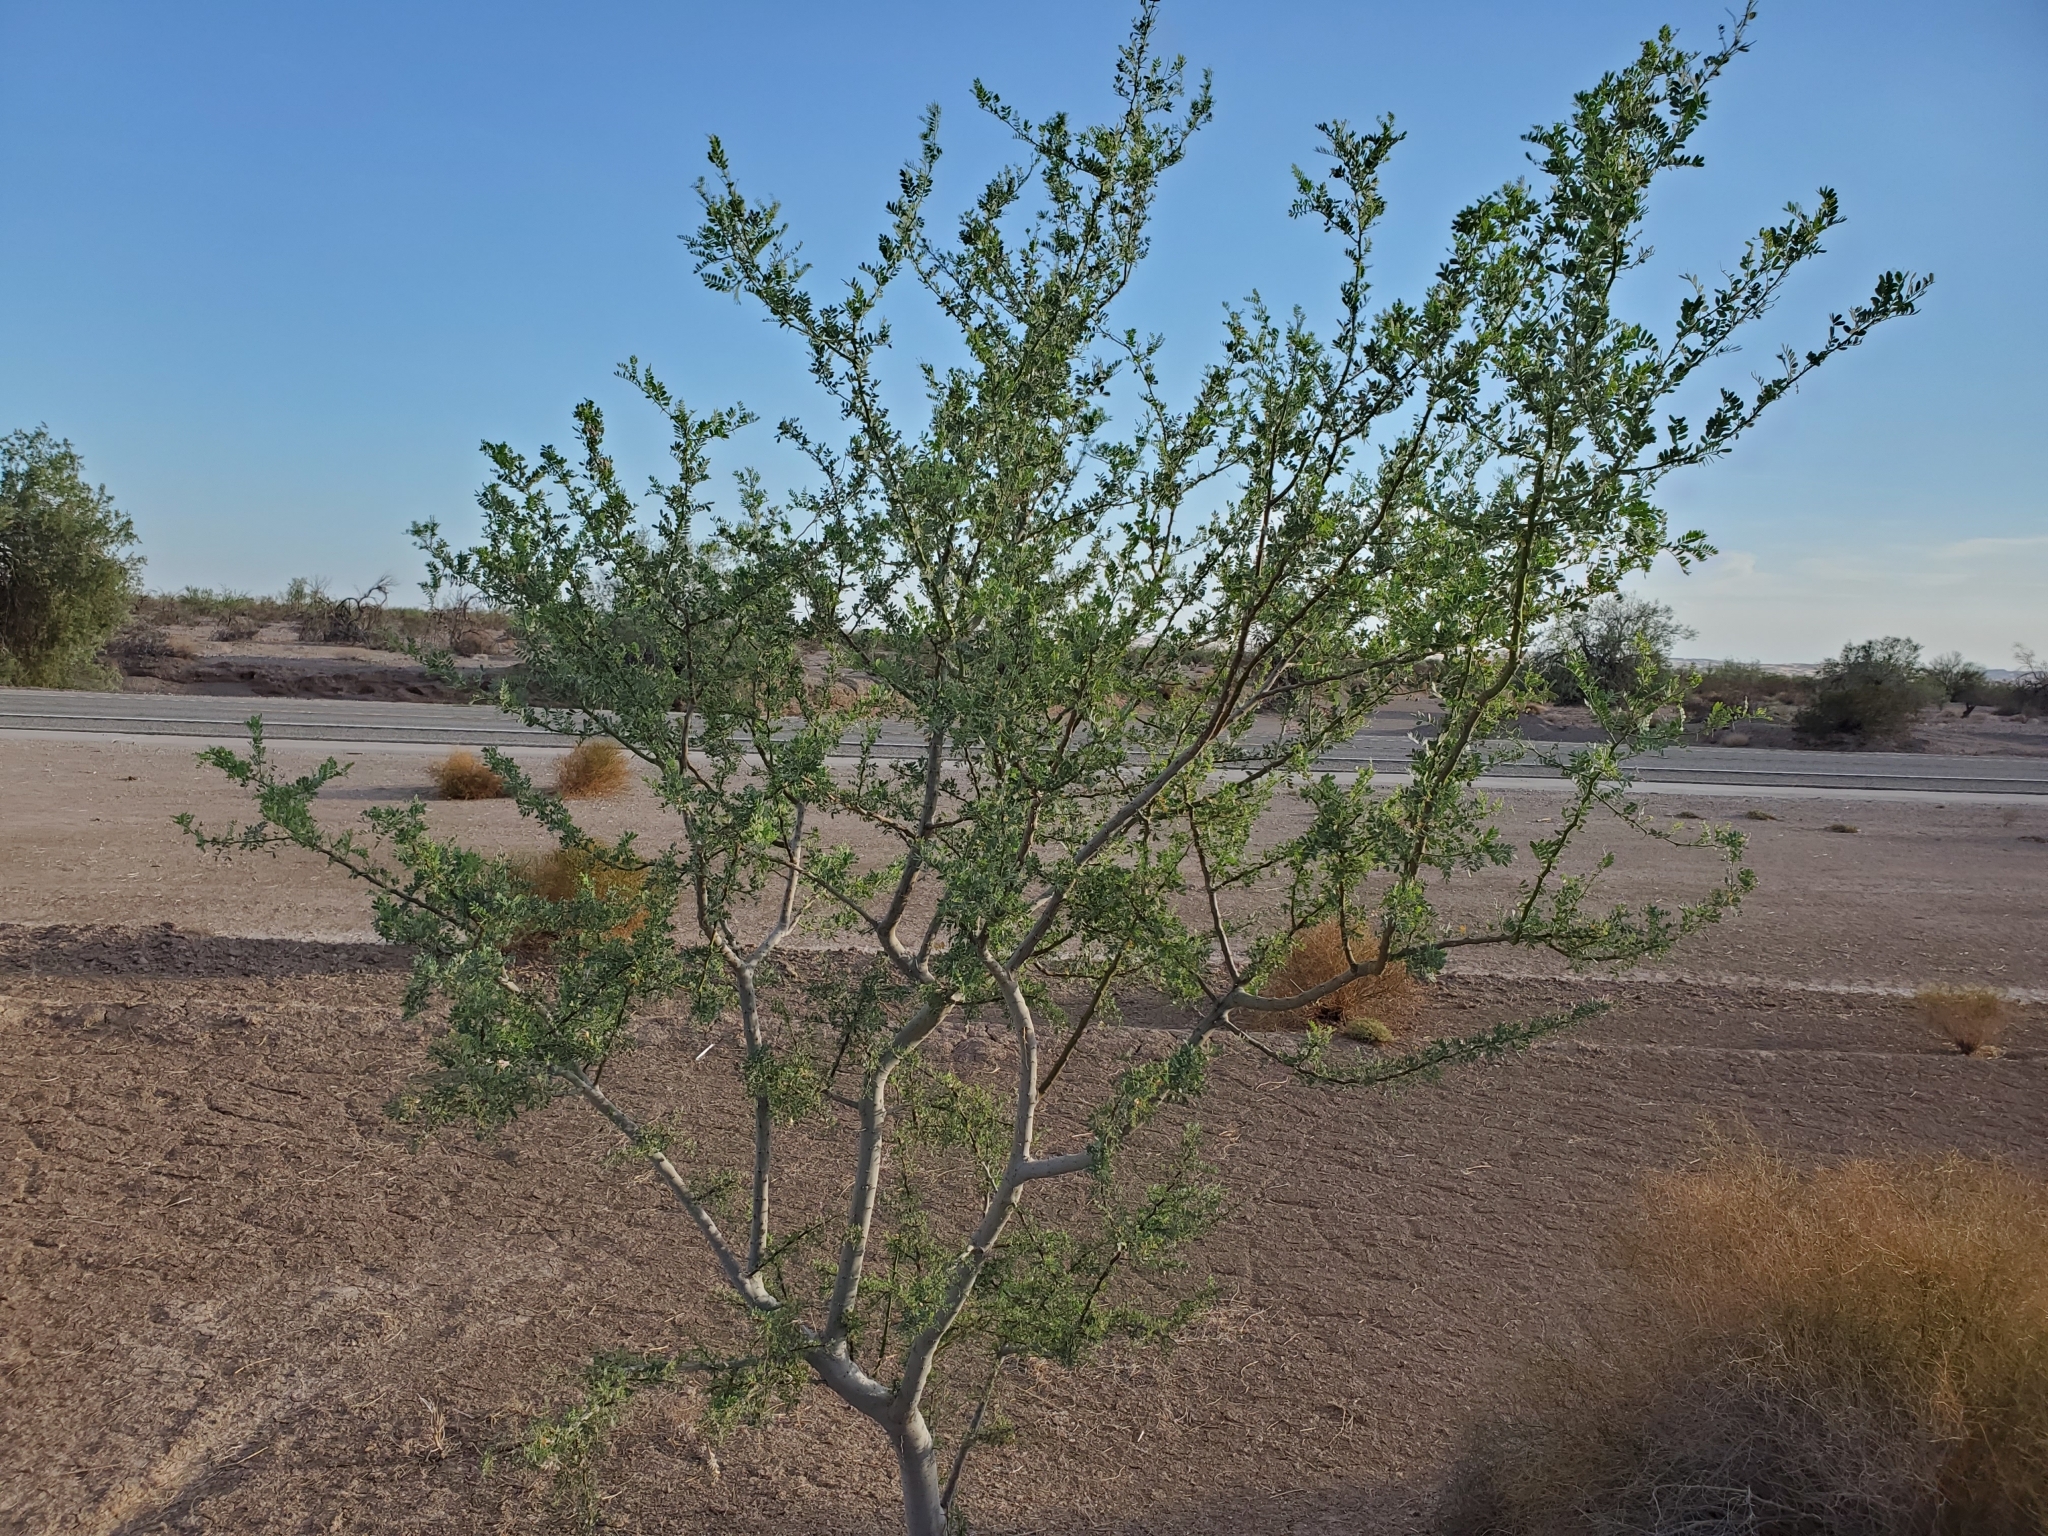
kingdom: Plantae
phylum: Tracheophyta
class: Magnoliopsida
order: Fabales
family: Fabaceae
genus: Olneya
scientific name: Olneya tesota
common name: Desert ironwood
